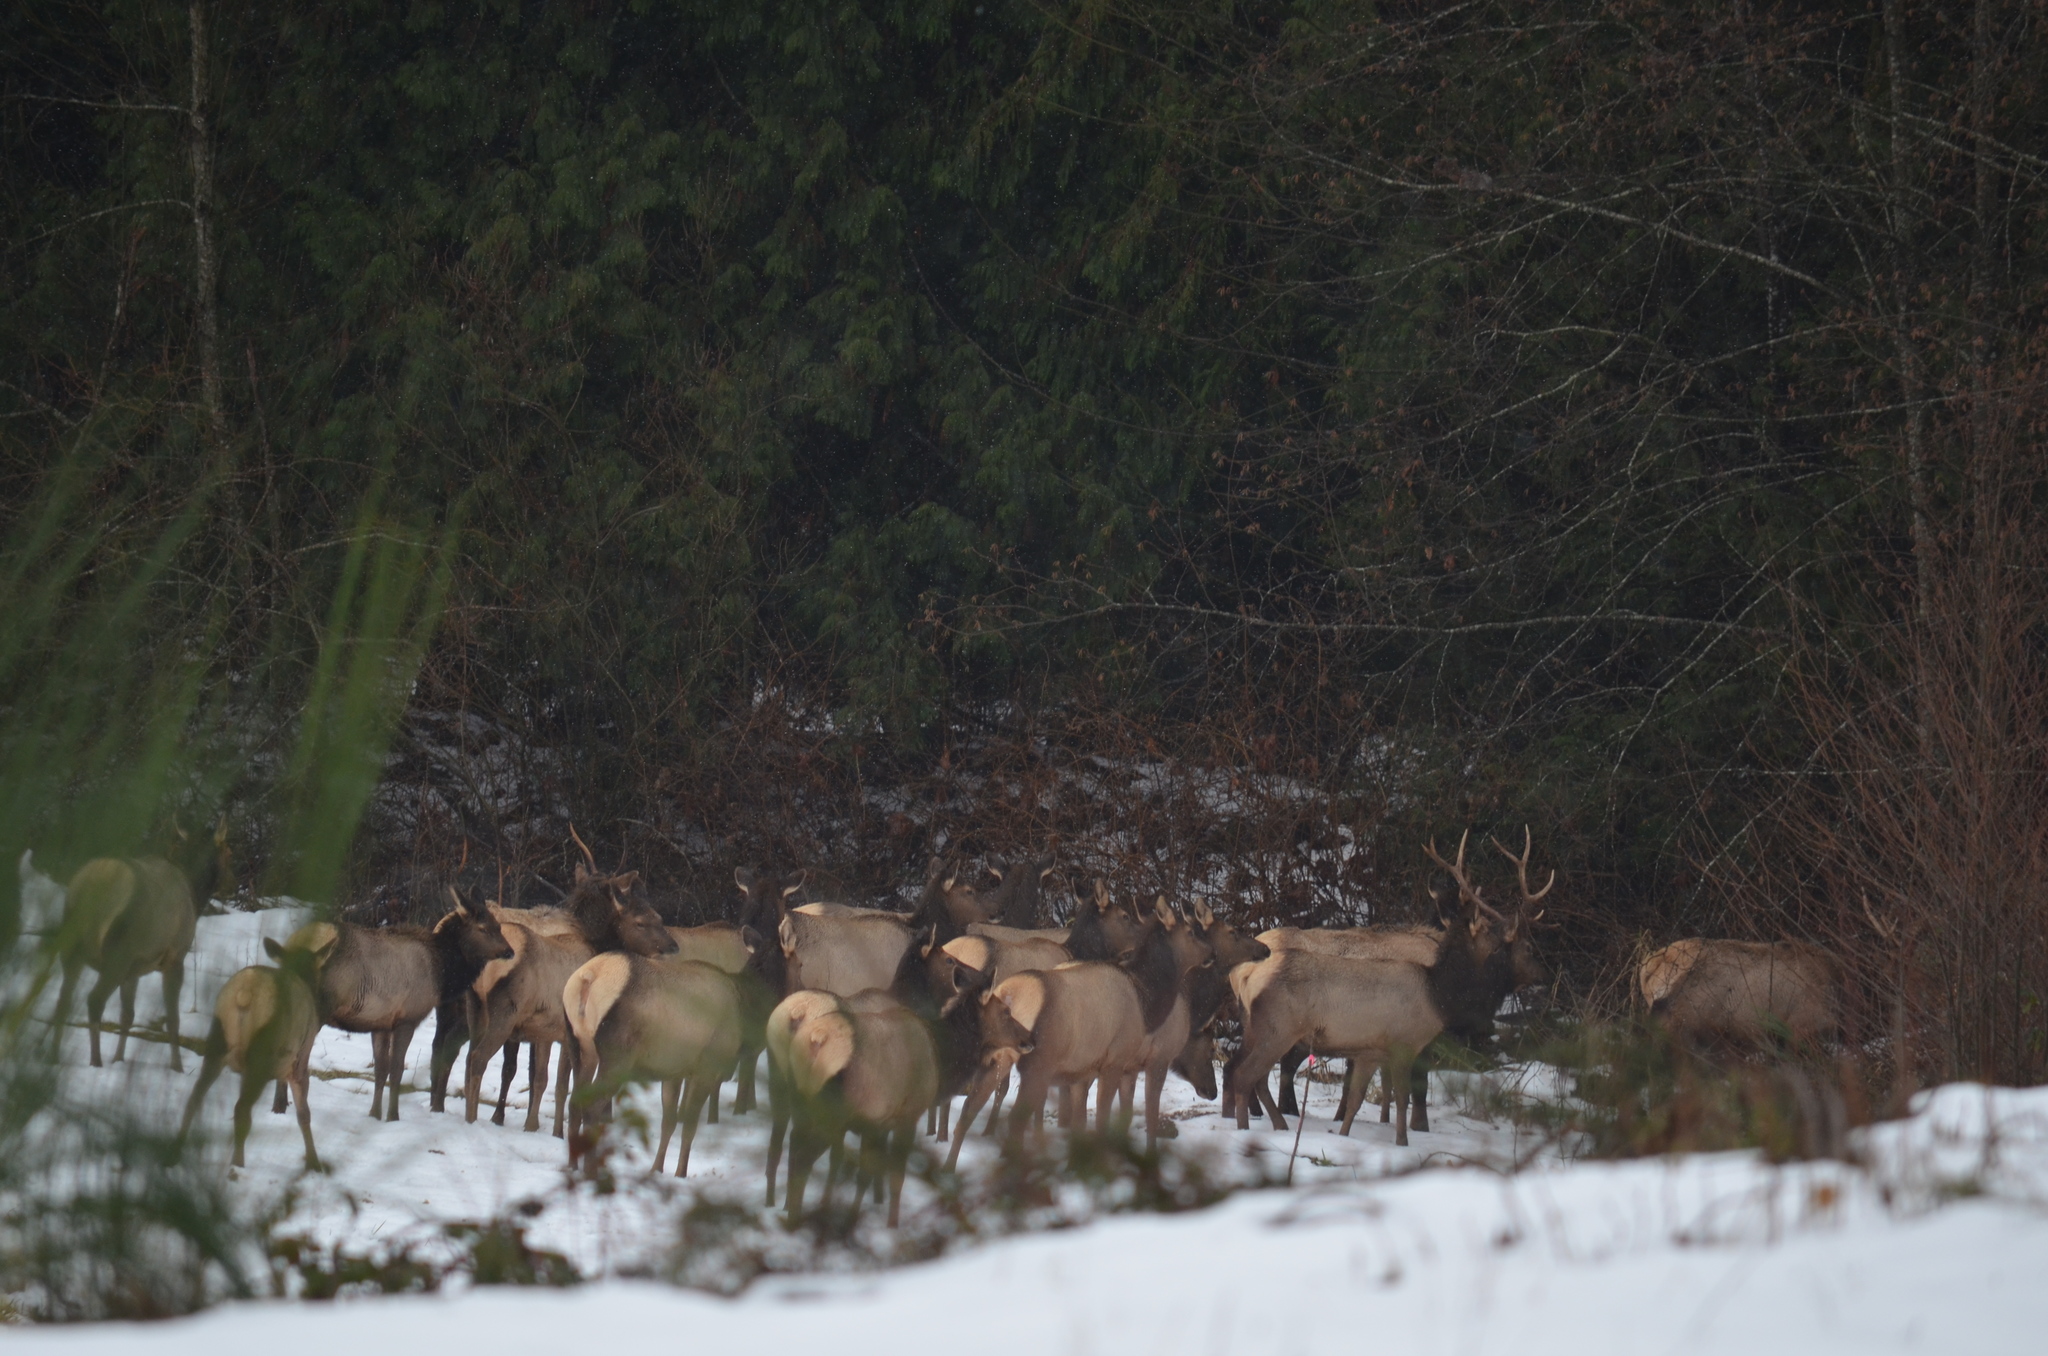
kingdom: Animalia
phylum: Chordata
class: Mammalia
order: Artiodactyla
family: Cervidae
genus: Cervus
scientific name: Cervus elaphus
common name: Red deer
